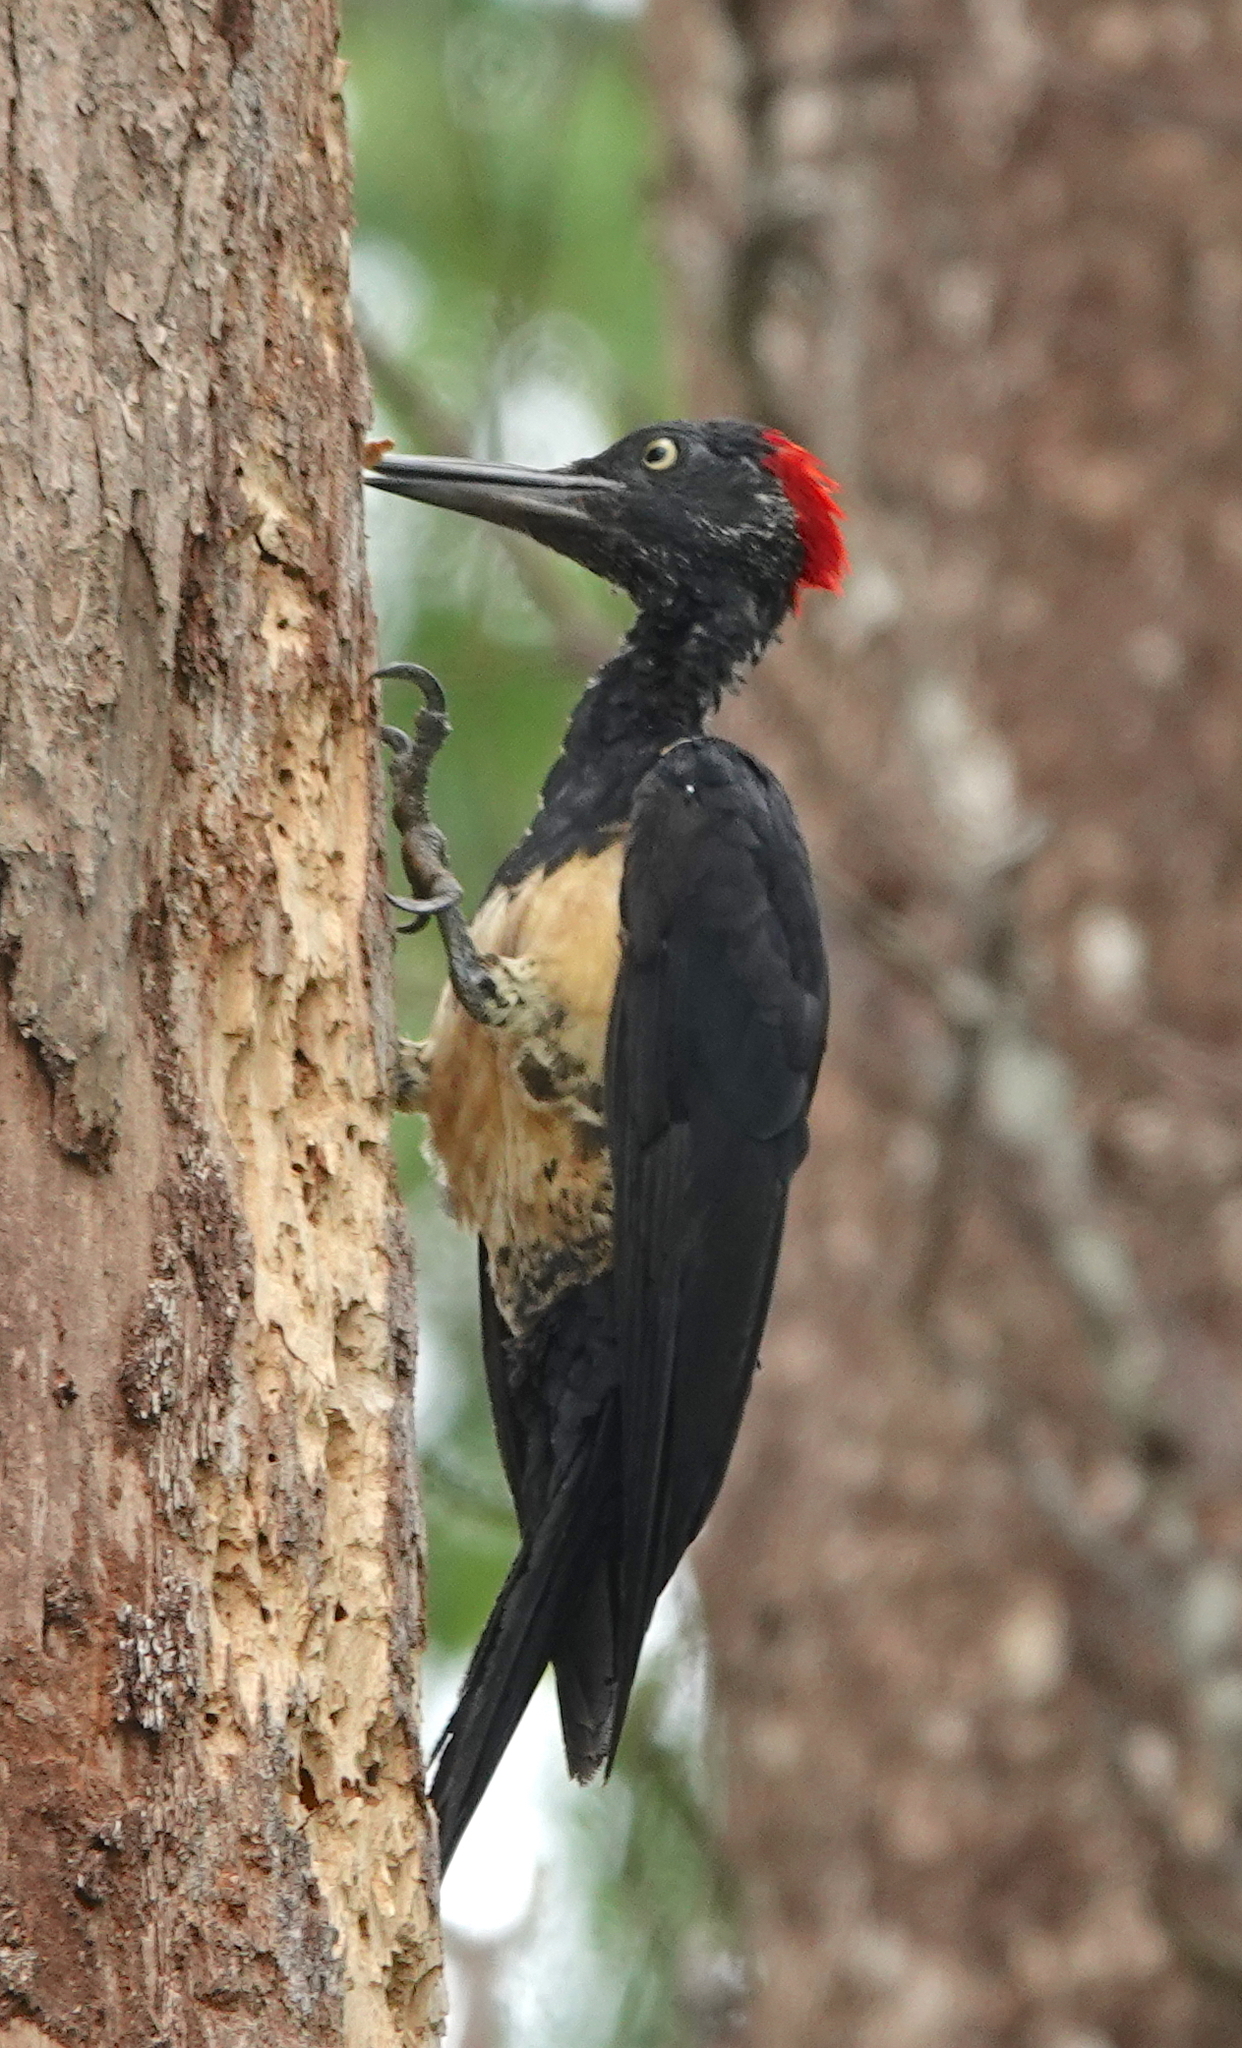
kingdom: Animalia
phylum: Chordata
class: Aves
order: Piciformes
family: Picidae
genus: Dryocopus
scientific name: Dryocopus javensis
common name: White-bellied woodpecker
